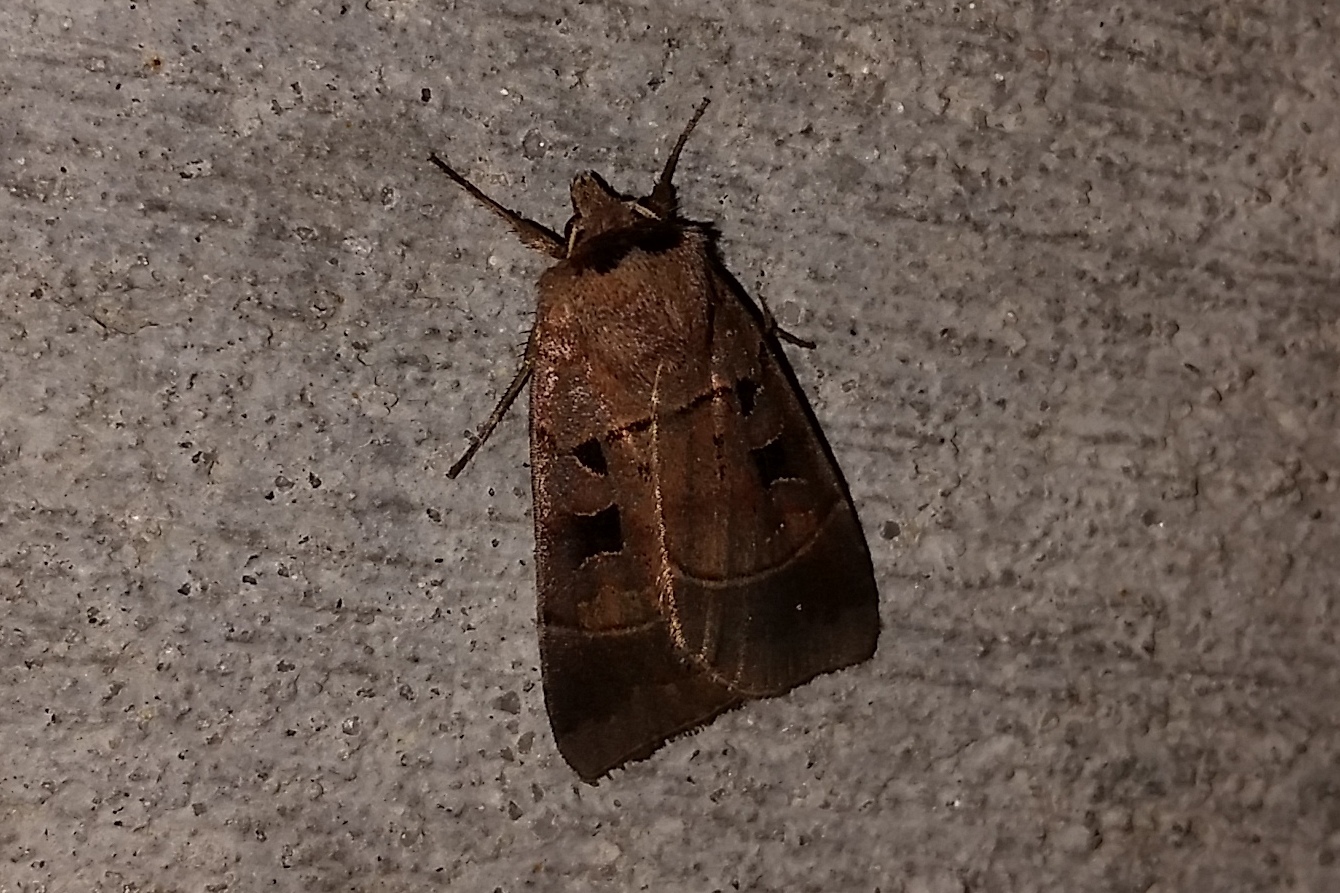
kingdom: Animalia
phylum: Arthropoda
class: Insecta
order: Lepidoptera
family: Noctuidae
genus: Agnorisma
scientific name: Agnorisma badinodis
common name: Pale-banded dart
